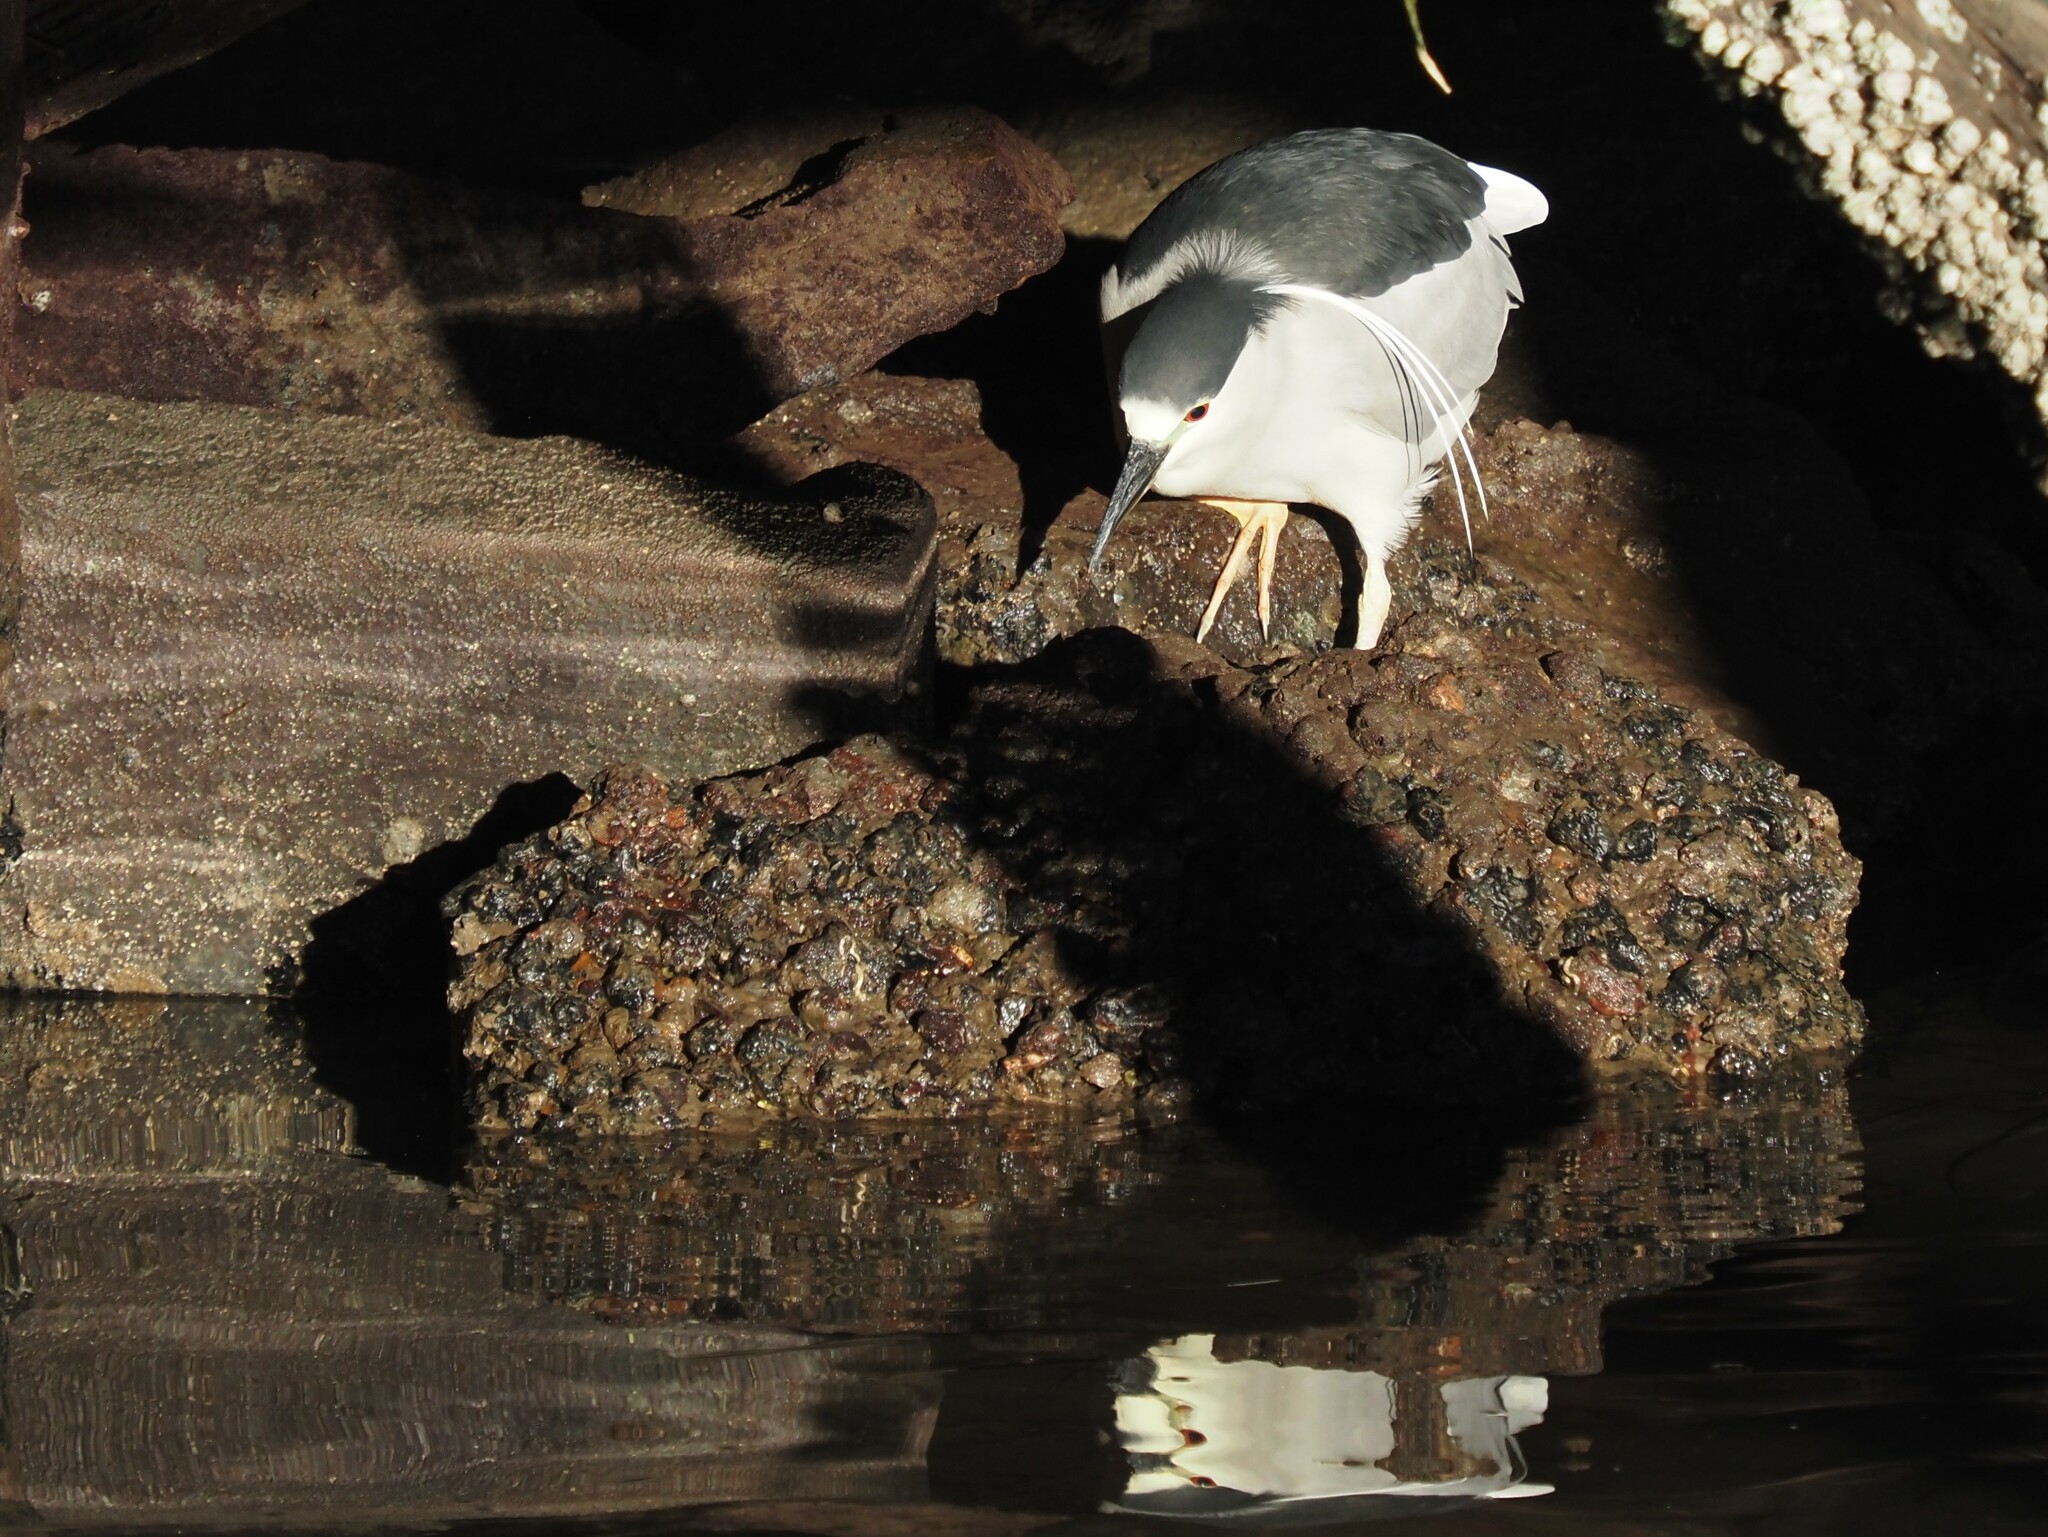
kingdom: Animalia
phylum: Chordata
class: Aves
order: Pelecaniformes
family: Ardeidae
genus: Nycticorax
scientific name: Nycticorax nycticorax
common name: Black-crowned night heron
